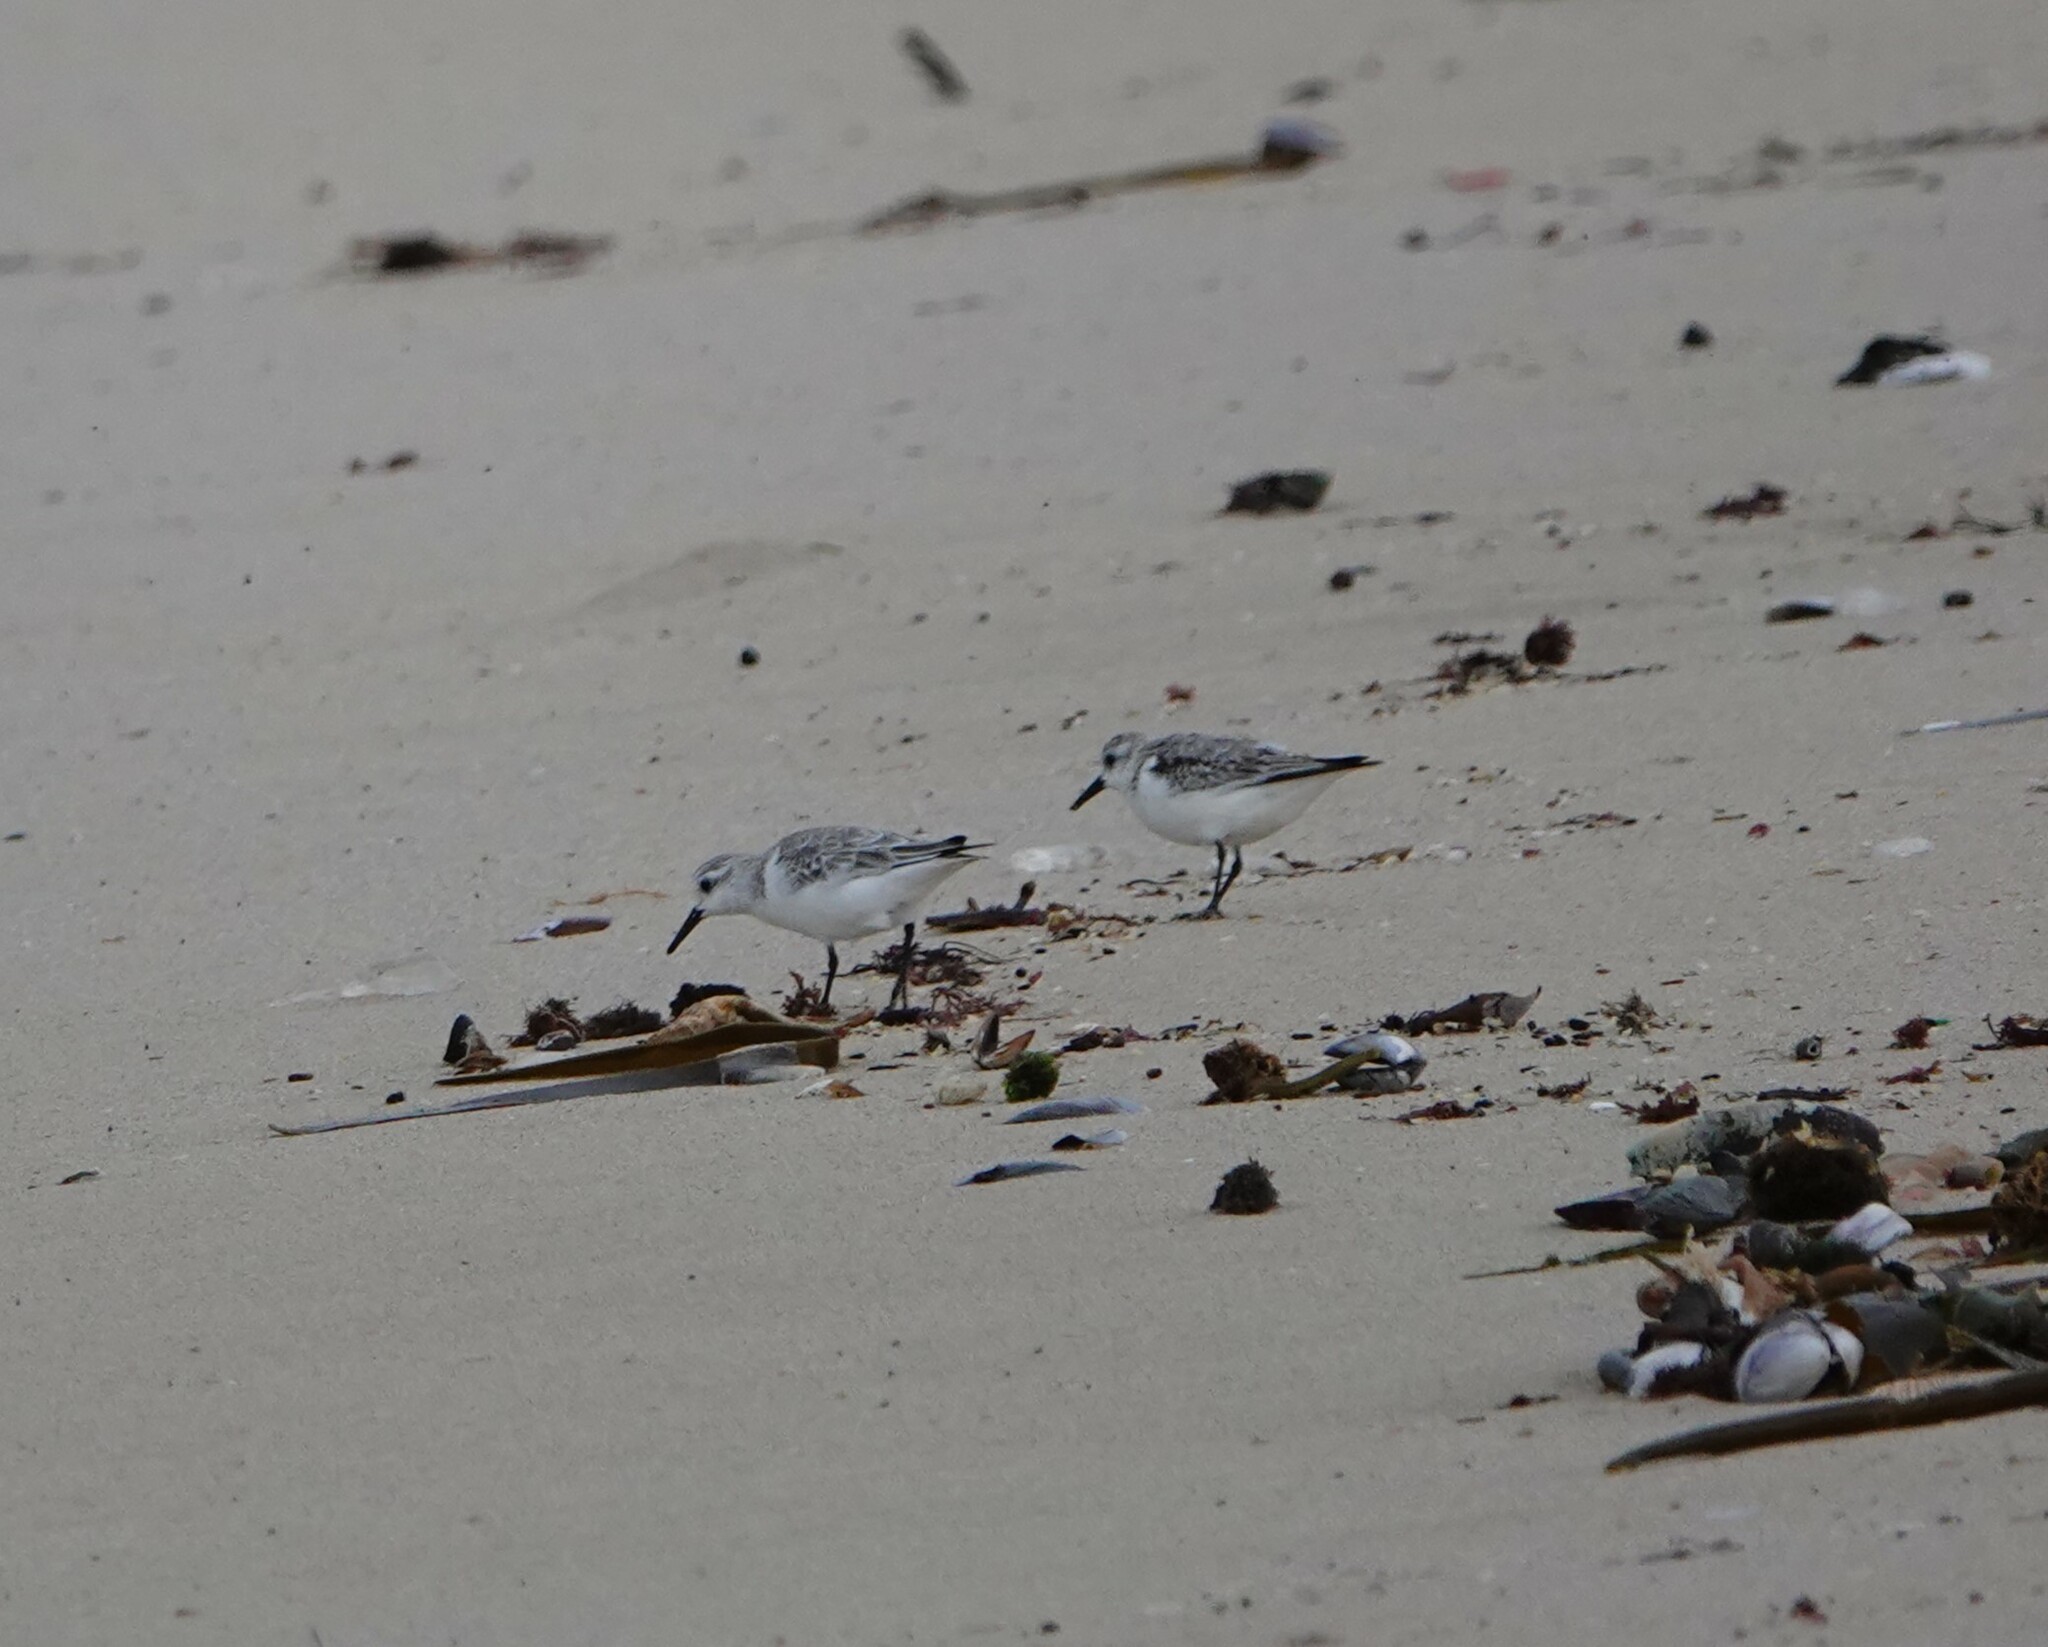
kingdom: Animalia
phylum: Chordata
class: Aves
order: Charadriiformes
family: Scolopacidae
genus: Calidris
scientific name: Calidris alba
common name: Sanderling
